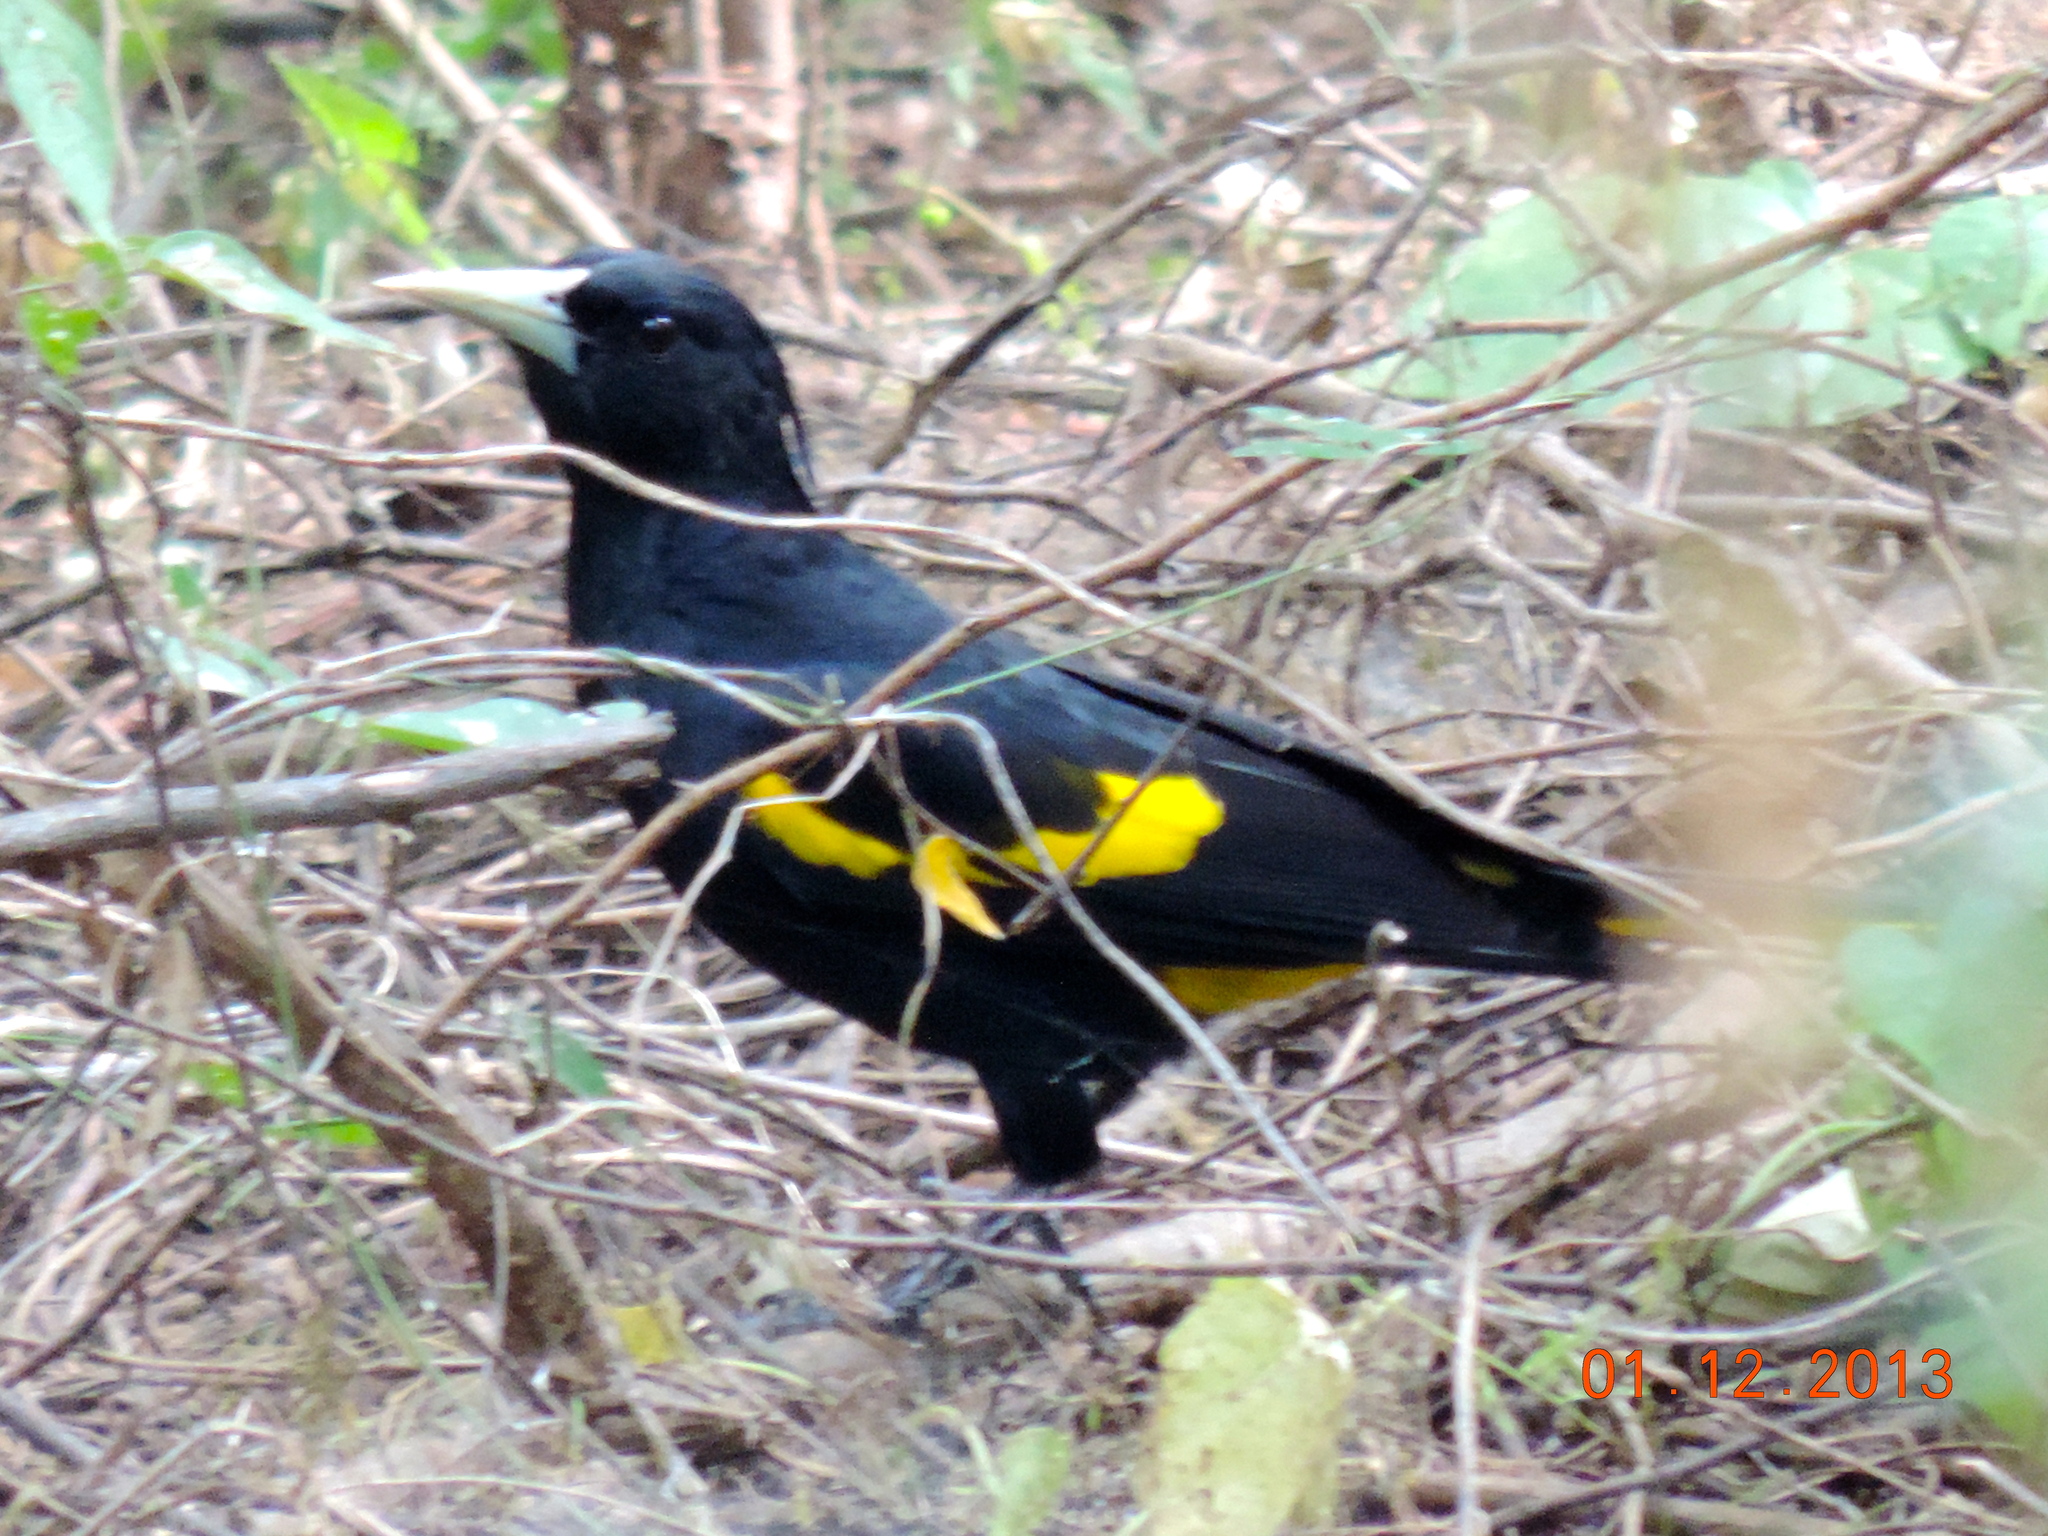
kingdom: Animalia
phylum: Chordata
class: Aves
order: Passeriformes
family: Icteridae
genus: Cacicus
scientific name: Cacicus melanicterus
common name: Yellow-winged cacique
